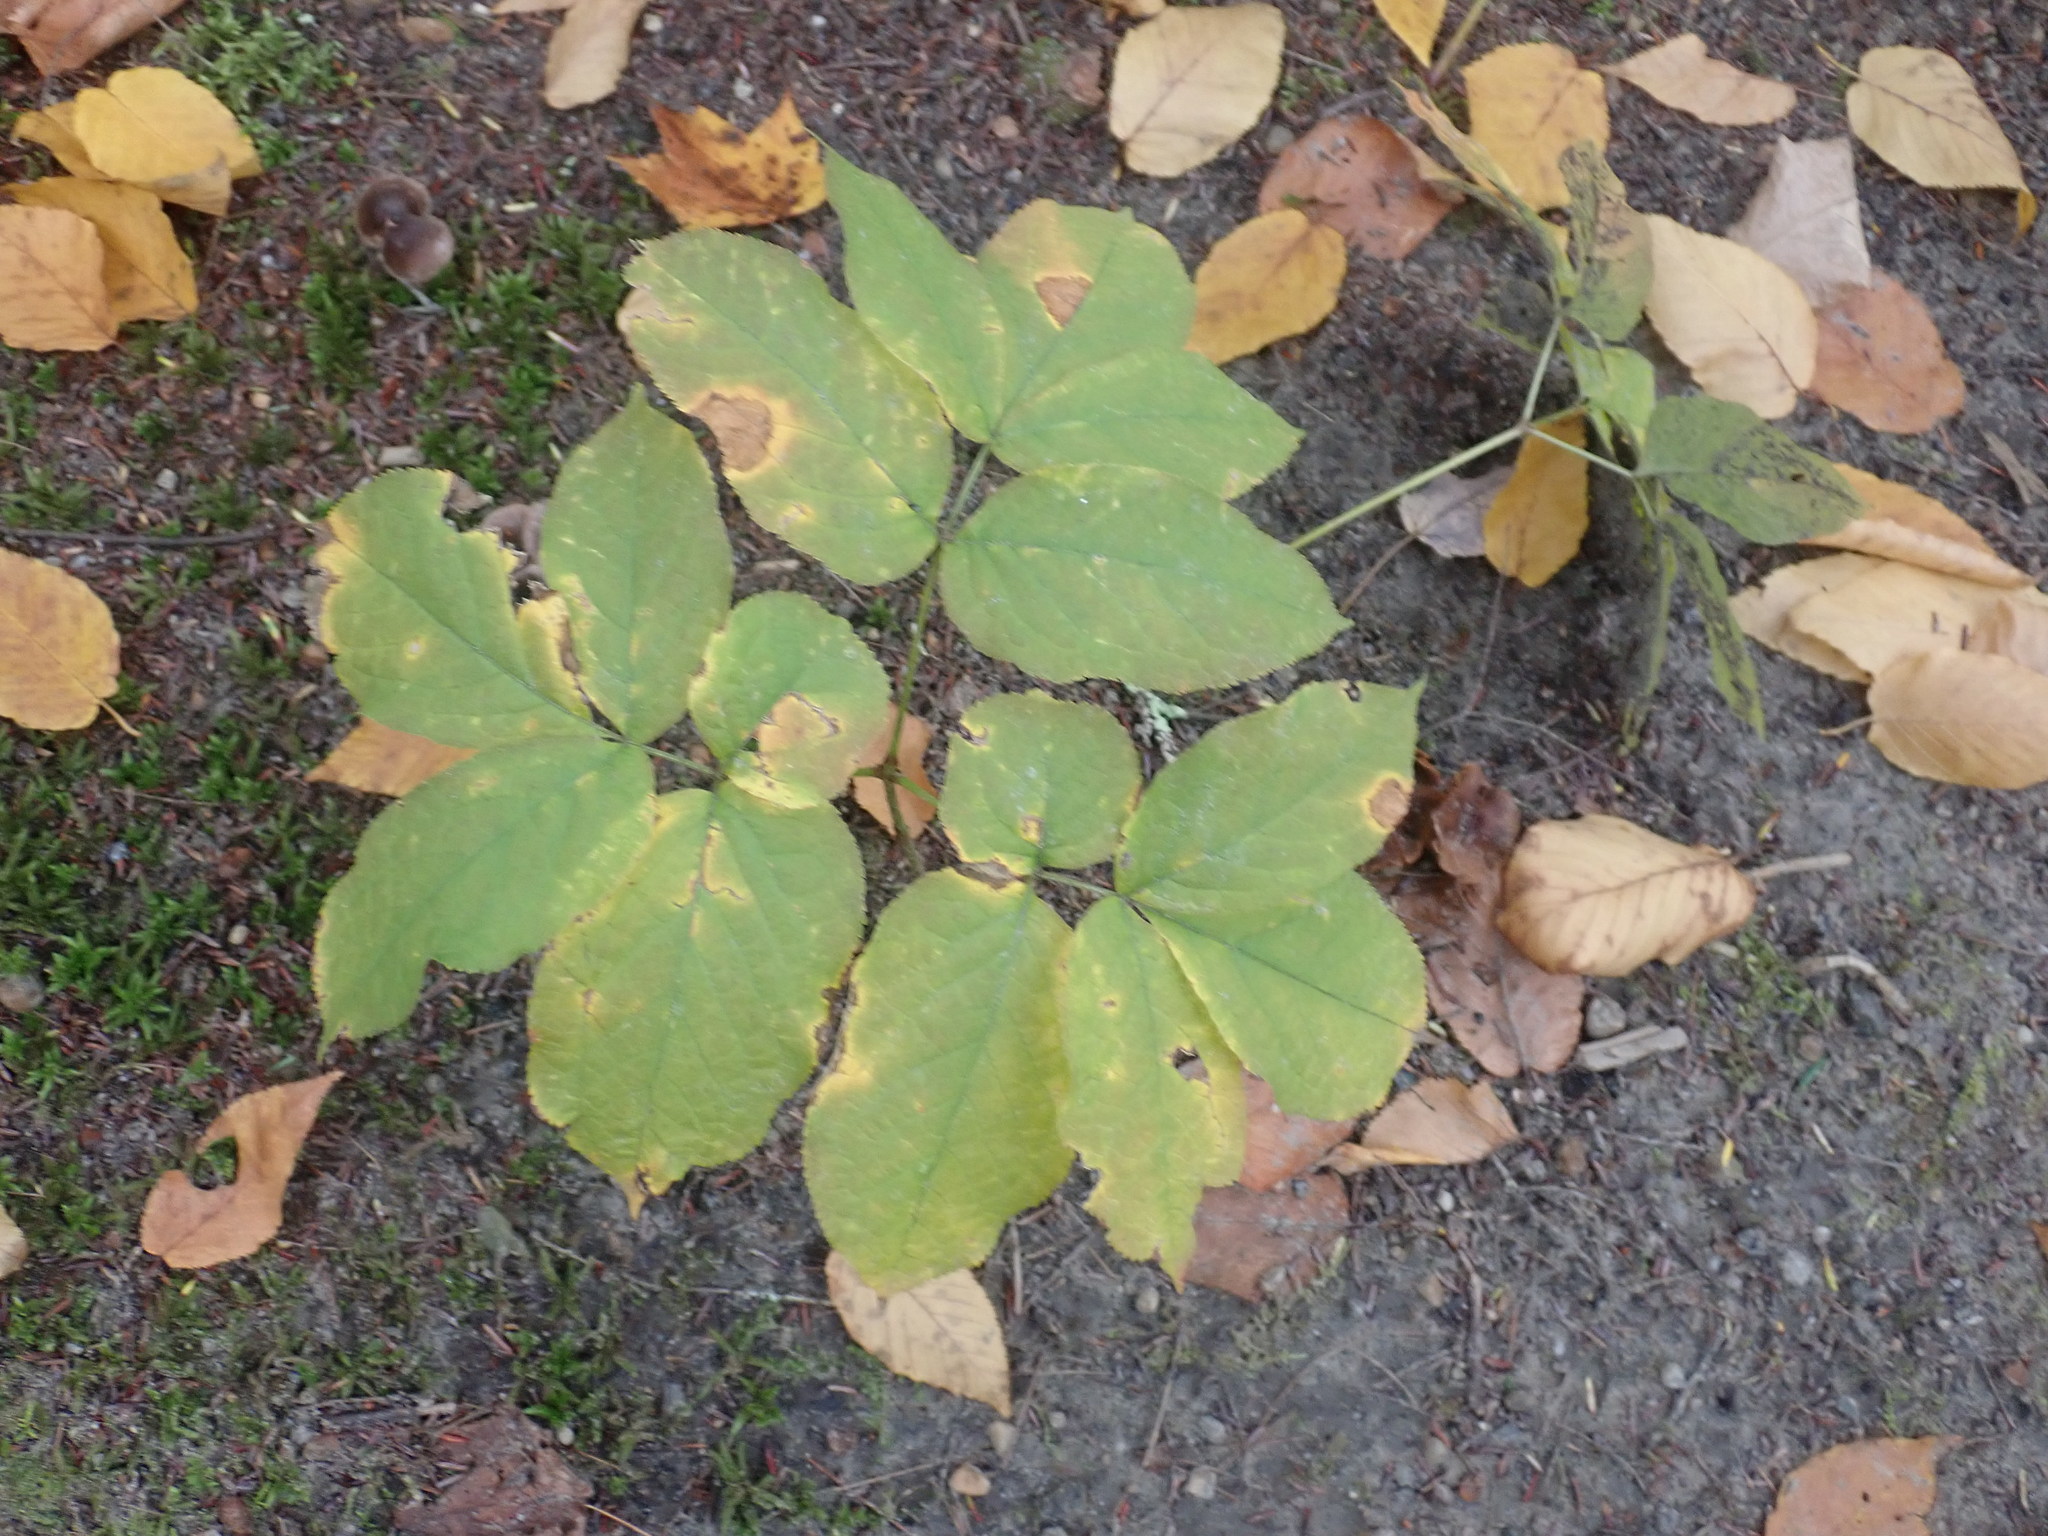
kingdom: Plantae
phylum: Tracheophyta
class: Magnoliopsida
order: Apiales
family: Araliaceae
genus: Aralia
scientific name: Aralia nudicaulis
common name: Wild sarsaparilla
